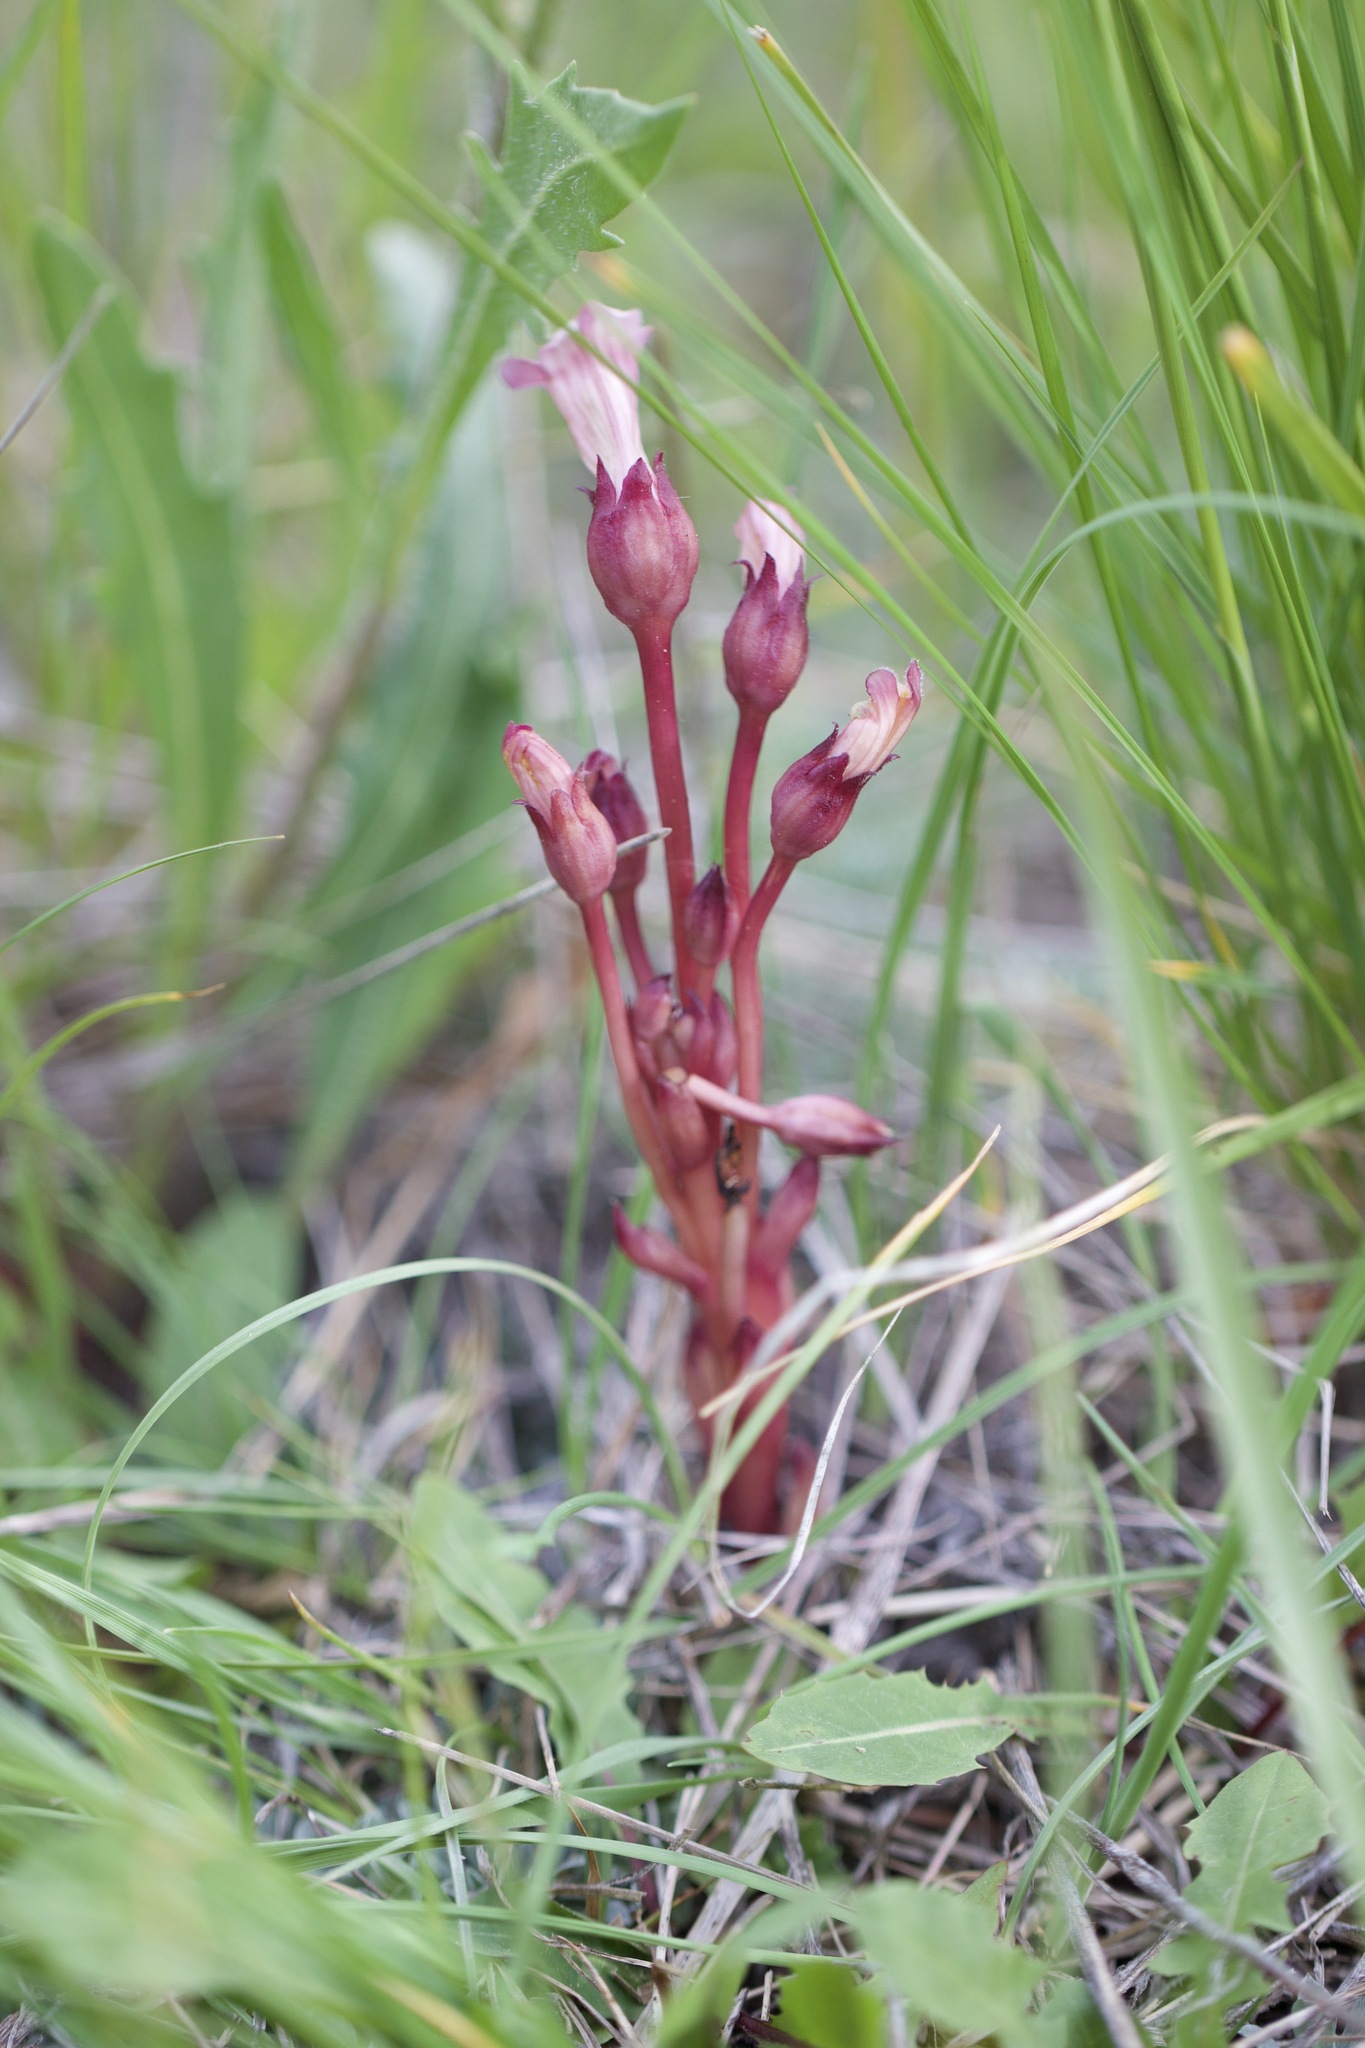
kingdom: Plantae
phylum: Tracheophyta
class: Magnoliopsida
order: Lamiales
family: Orobanchaceae
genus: Aphyllon
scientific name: Aphyllon fasciculatum
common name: Clustered broomrape
